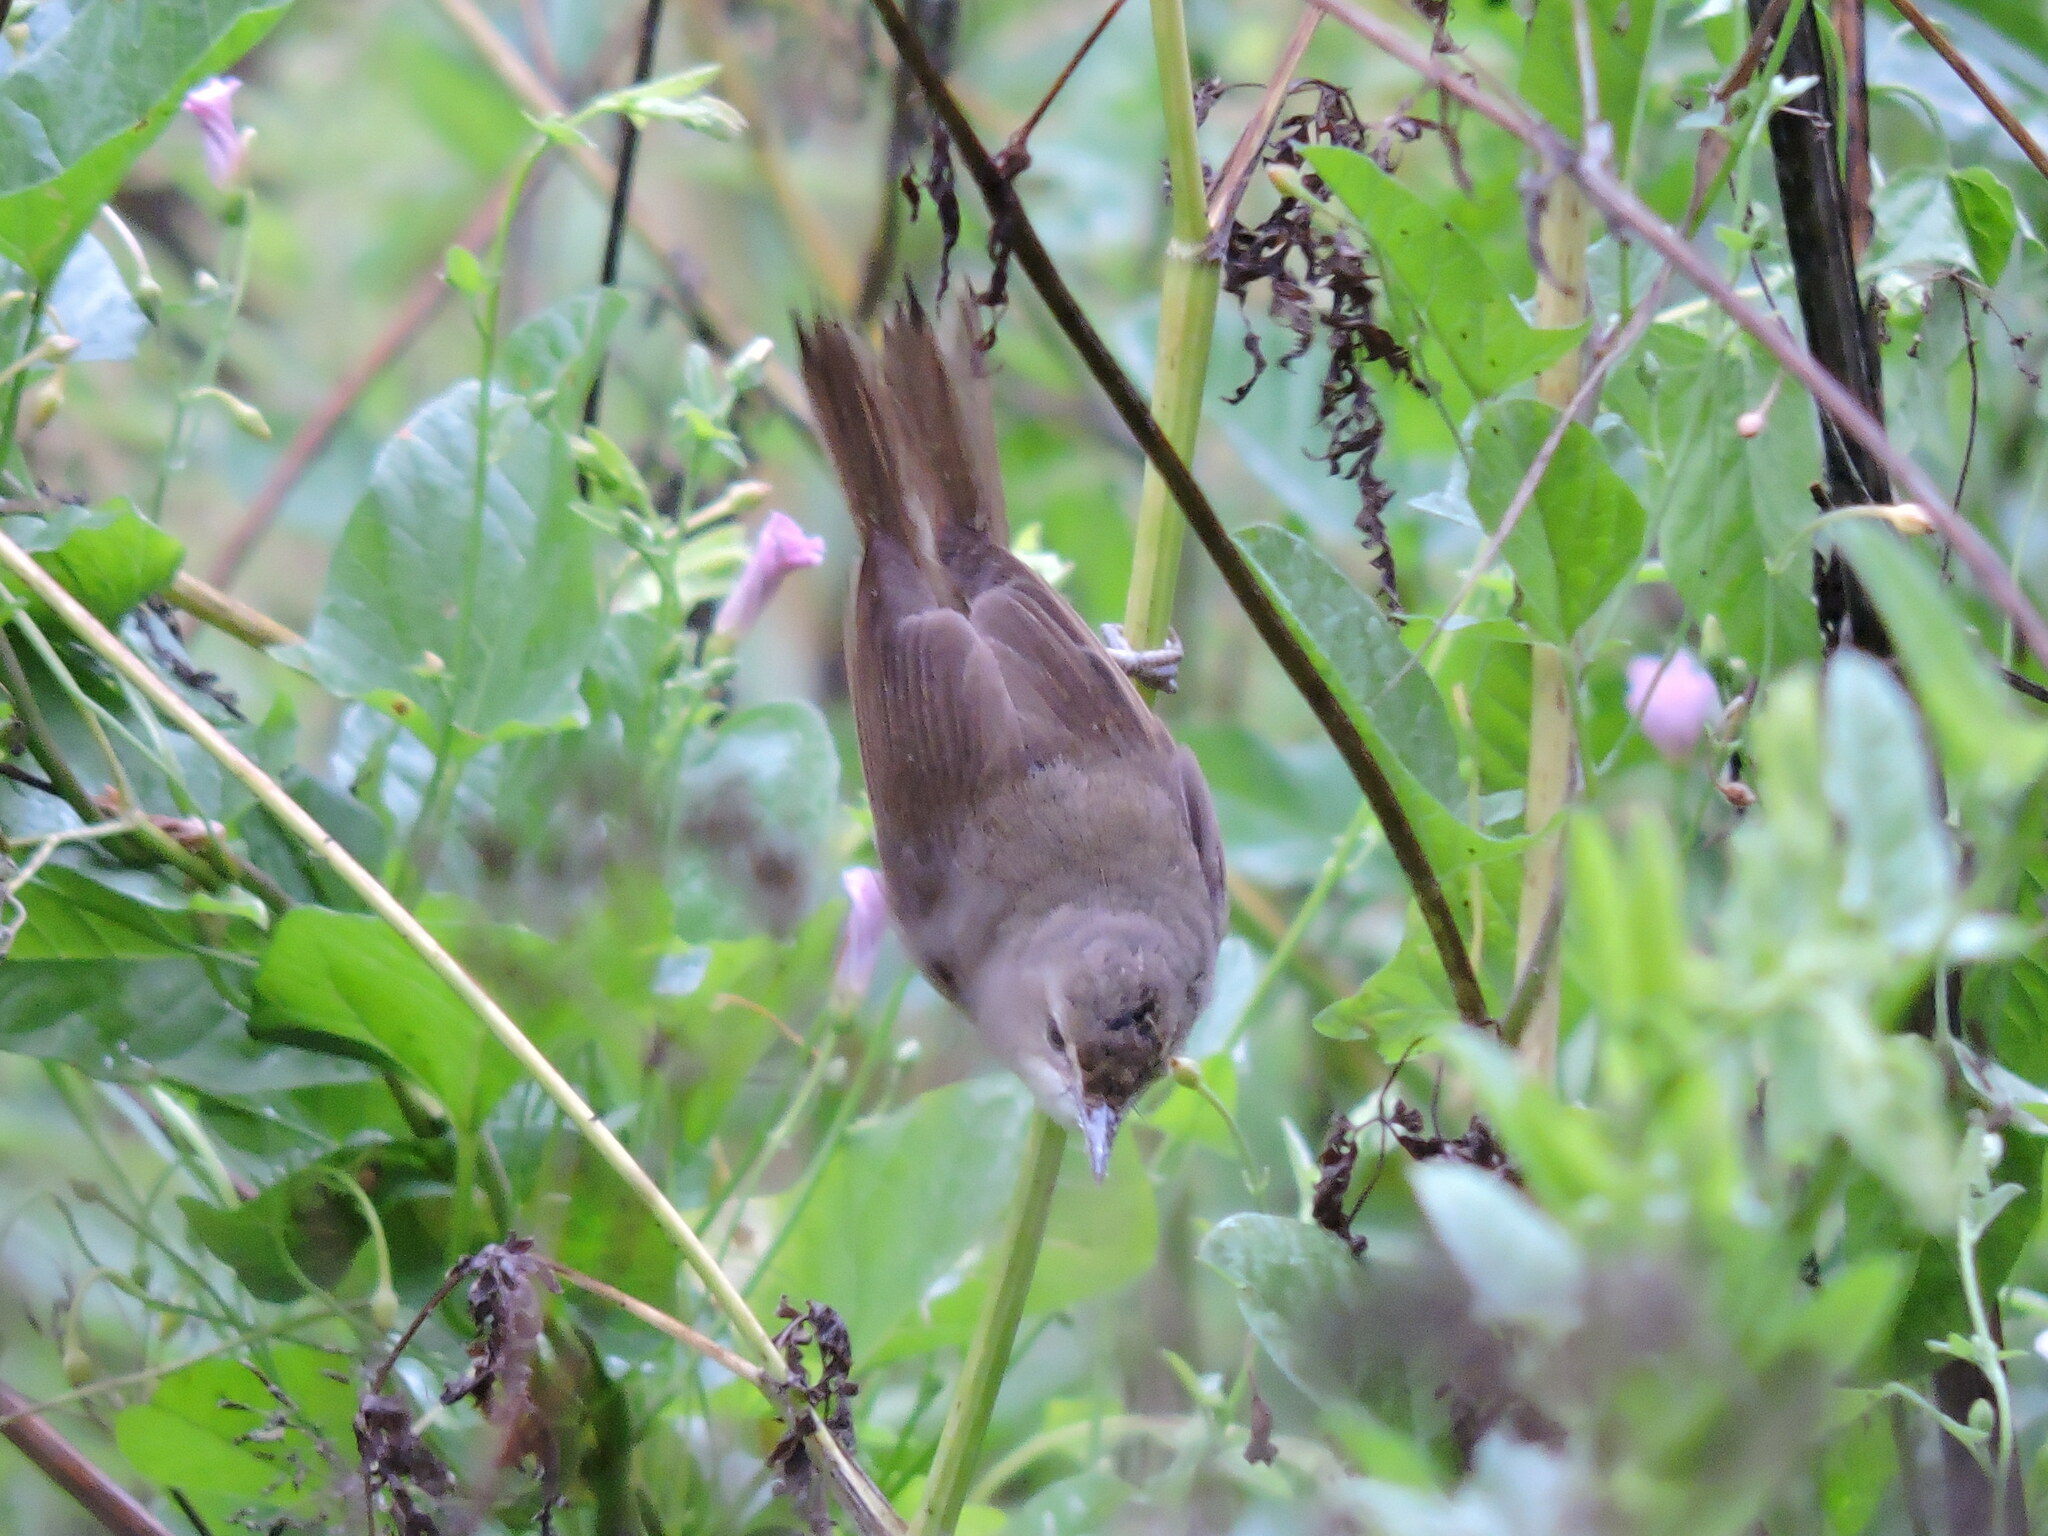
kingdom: Animalia
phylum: Chordata
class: Aves
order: Passeriformes
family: Acrocephalidae
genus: Acrocephalus
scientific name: Acrocephalus dumetorum
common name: Blyth's reed warbler
